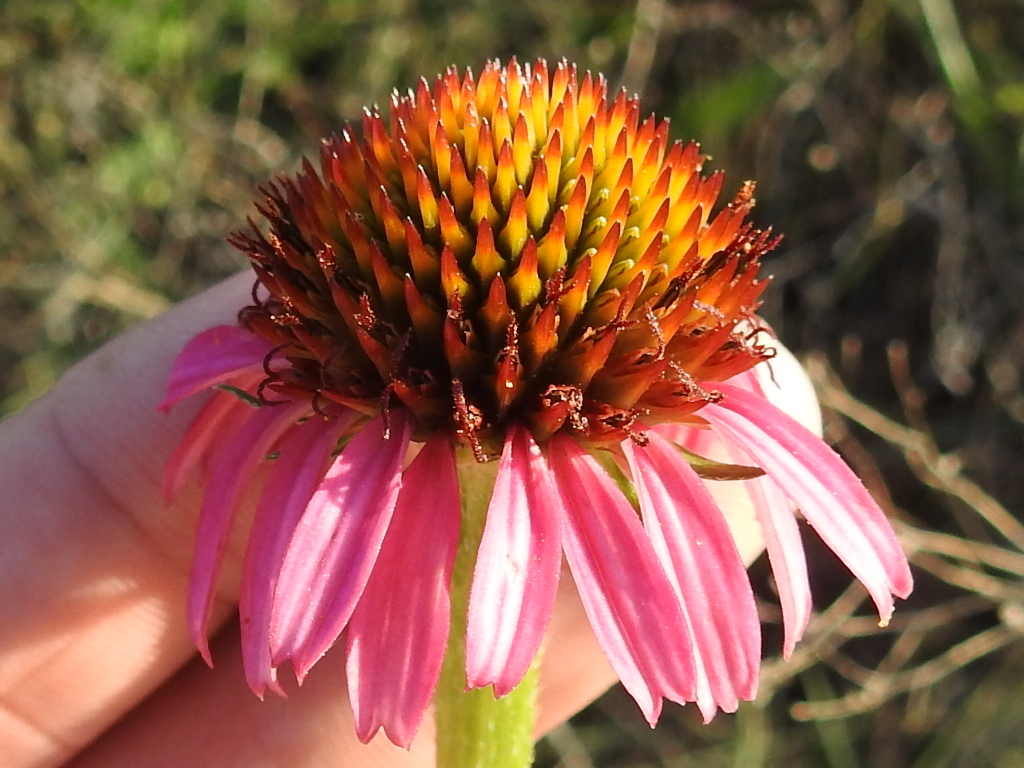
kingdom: Plantae
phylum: Tracheophyta
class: Magnoliopsida
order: Asterales
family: Asteraceae
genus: Echinacea
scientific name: Echinacea atrorubens
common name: Topeka purple-coneflower
